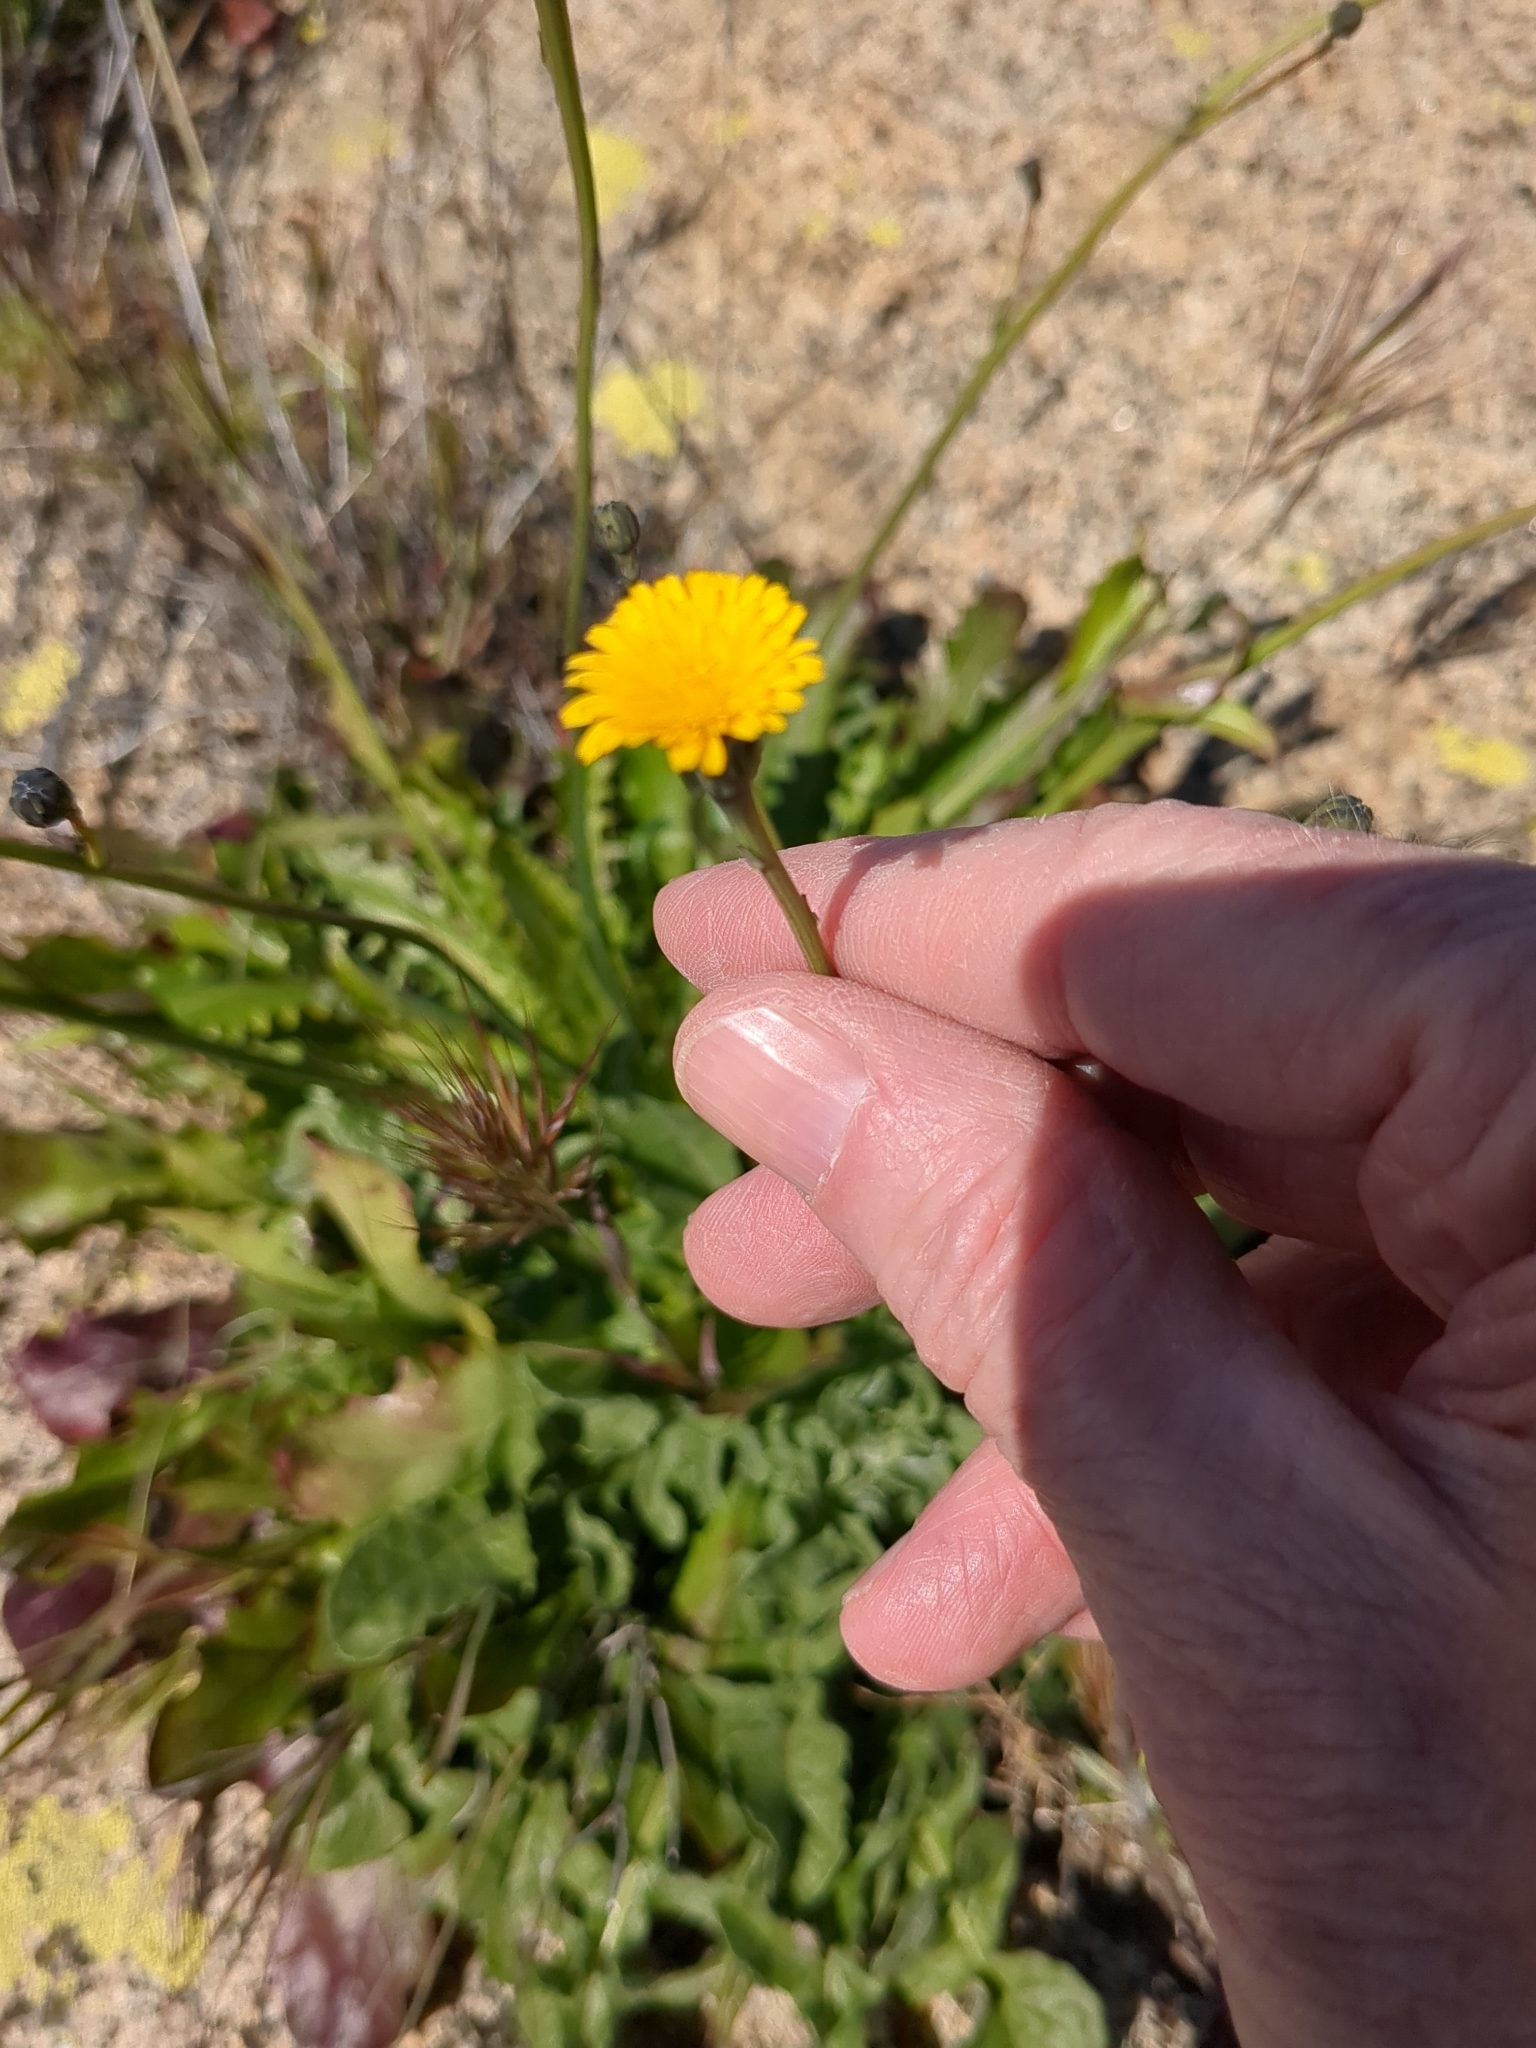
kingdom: Plantae
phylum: Tracheophyta
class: Magnoliopsida
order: Asterales
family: Asteraceae
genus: Hypochaeris
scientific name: Hypochaeris glabra
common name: Smooth catsear
